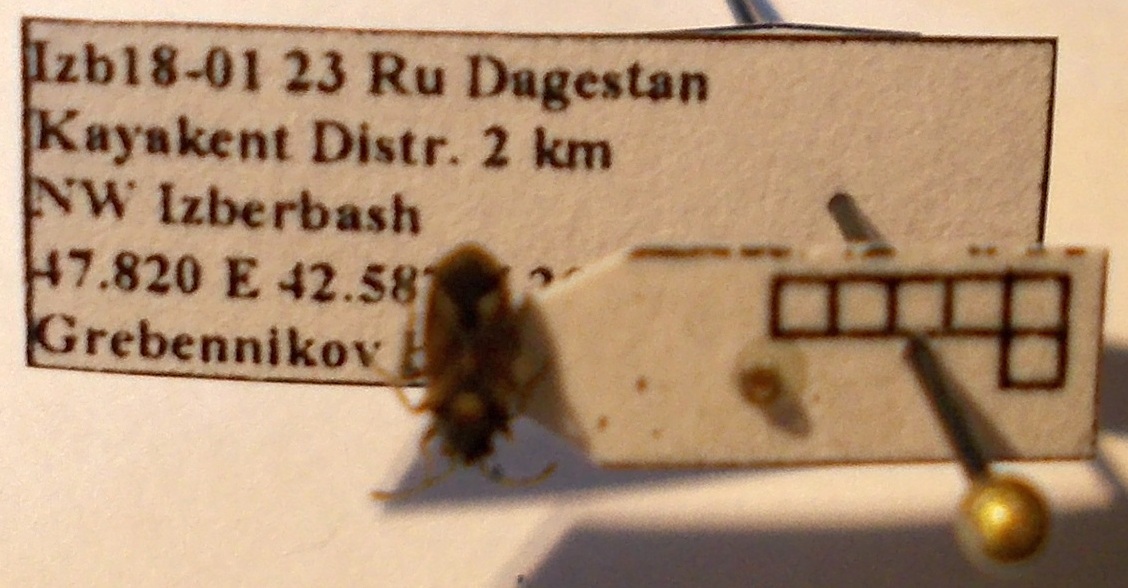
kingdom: Animalia
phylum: Arthropoda
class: Insecta
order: Hemiptera
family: Lygaeidae
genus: Lygaeosoma
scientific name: Lygaeosoma sardeum
